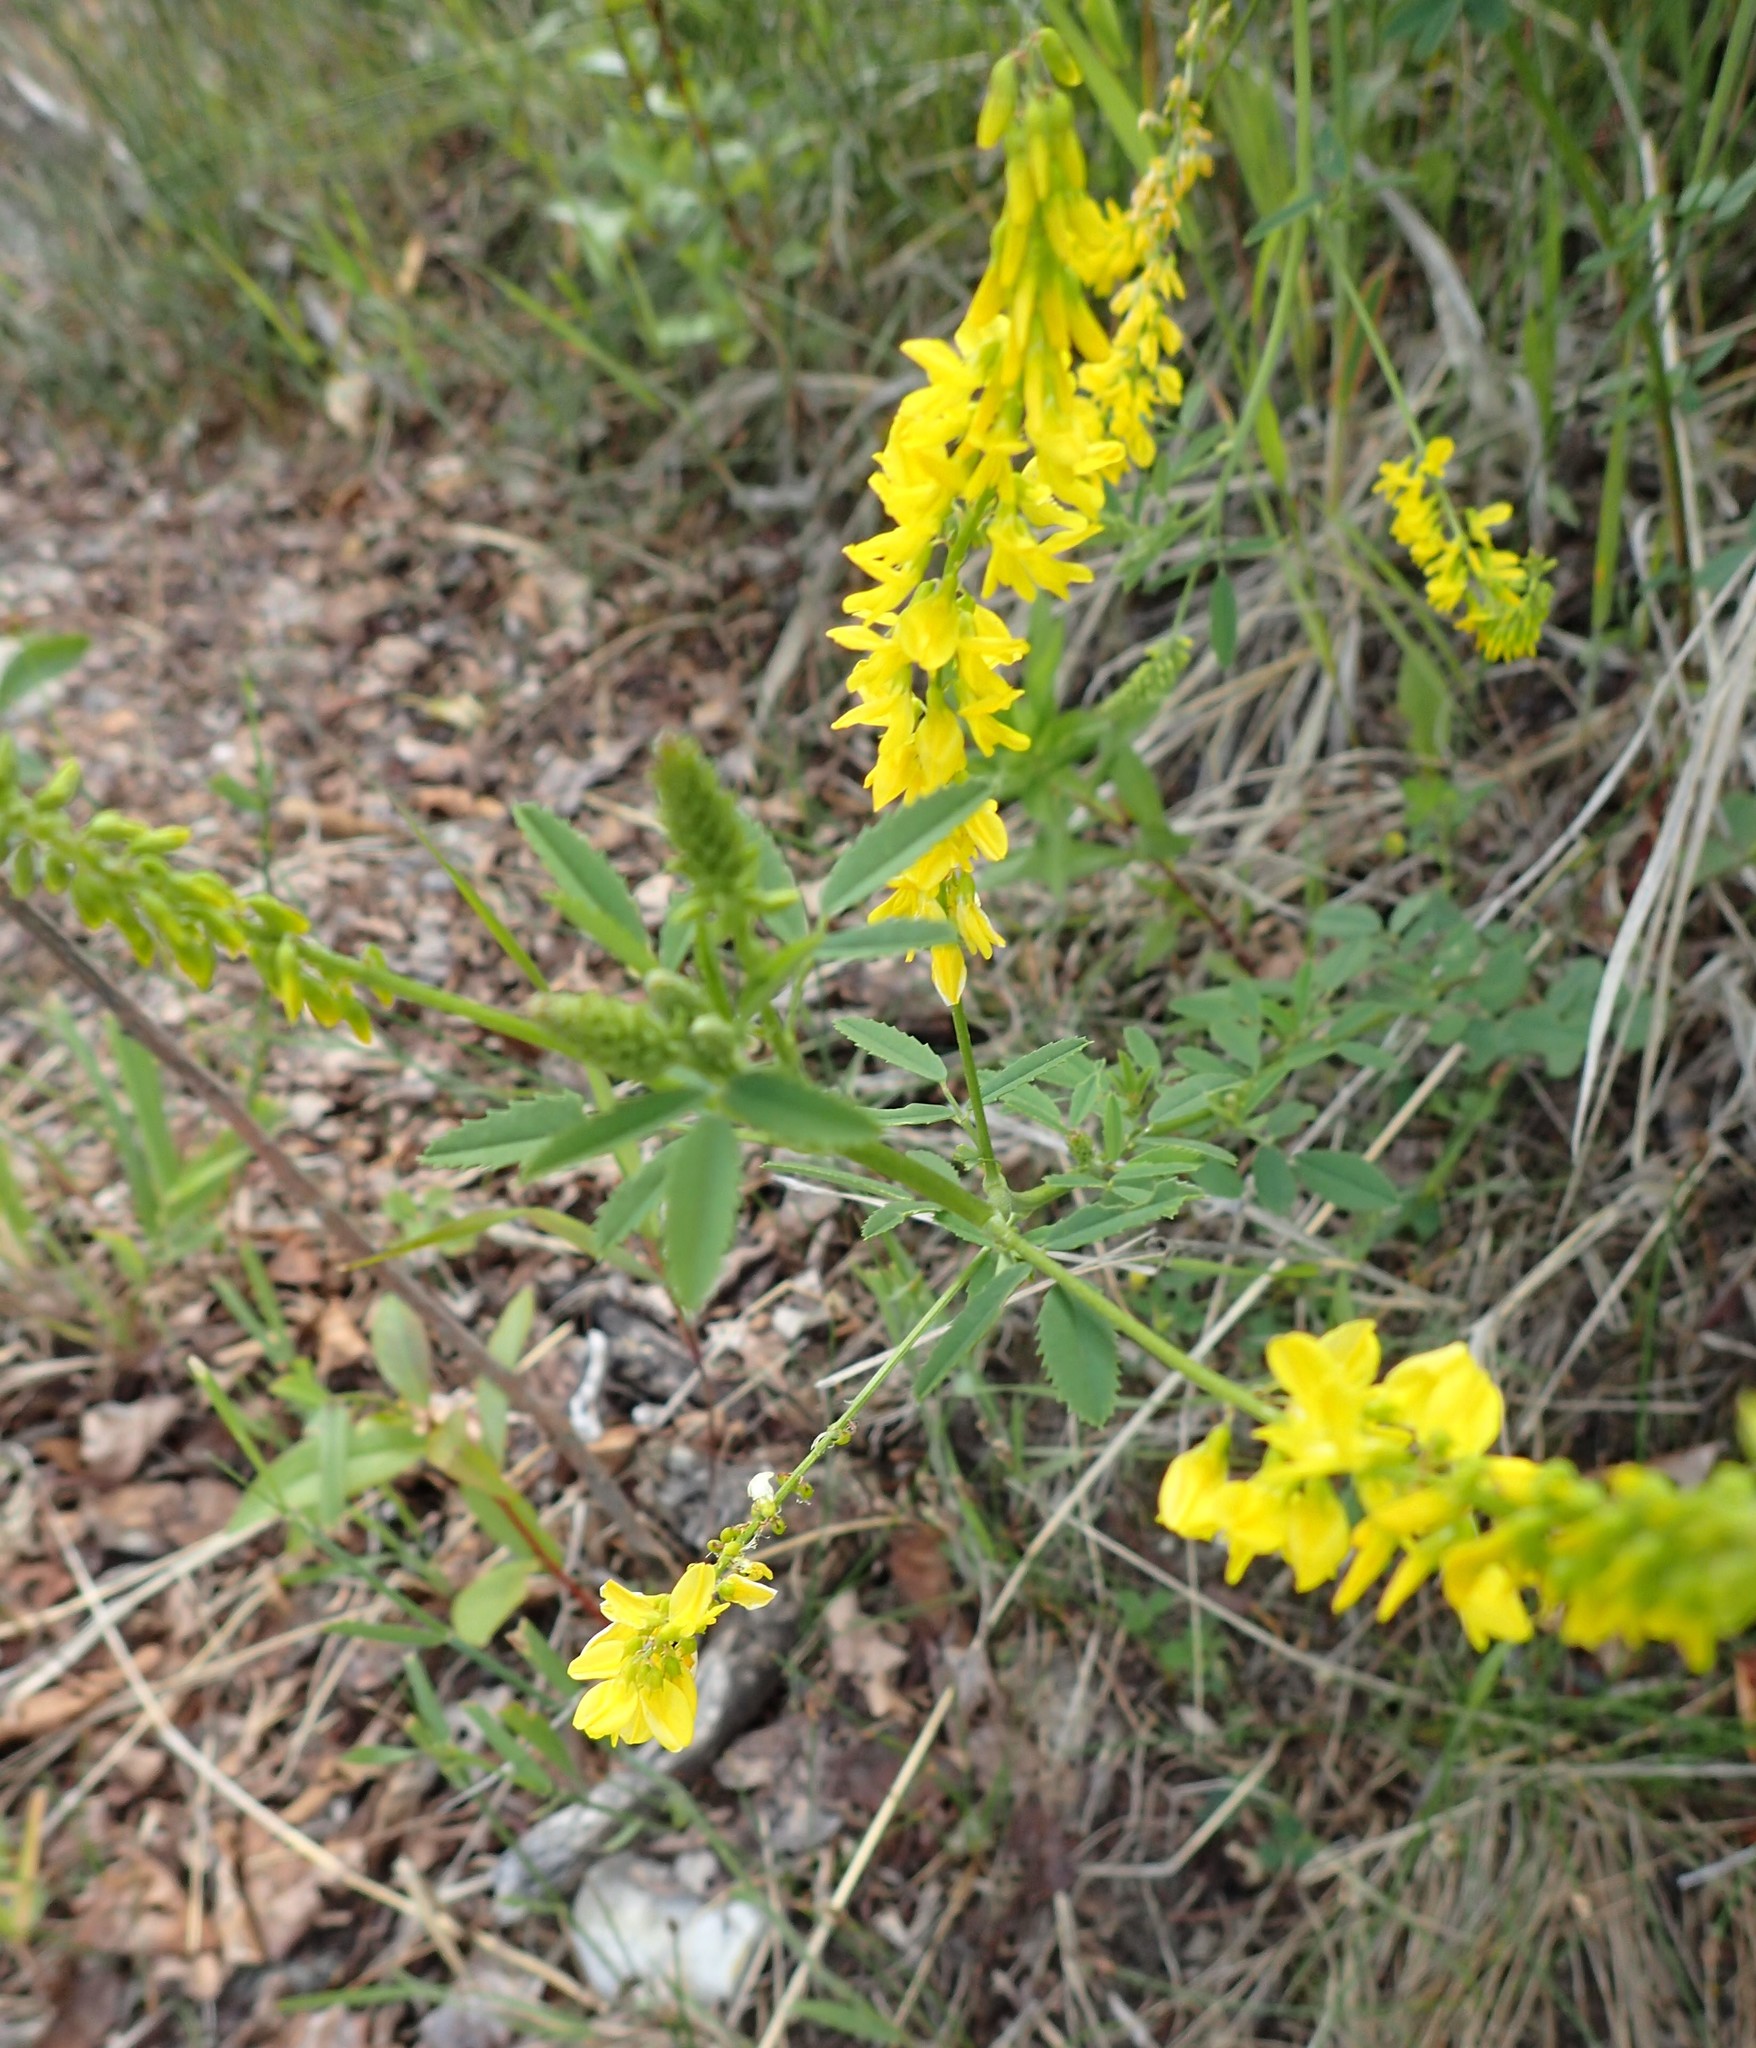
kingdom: Plantae
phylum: Tracheophyta
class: Magnoliopsida
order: Fabales
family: Fabaceae
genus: Melilotus
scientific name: Melilotus officinalis
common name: Sweetclover
